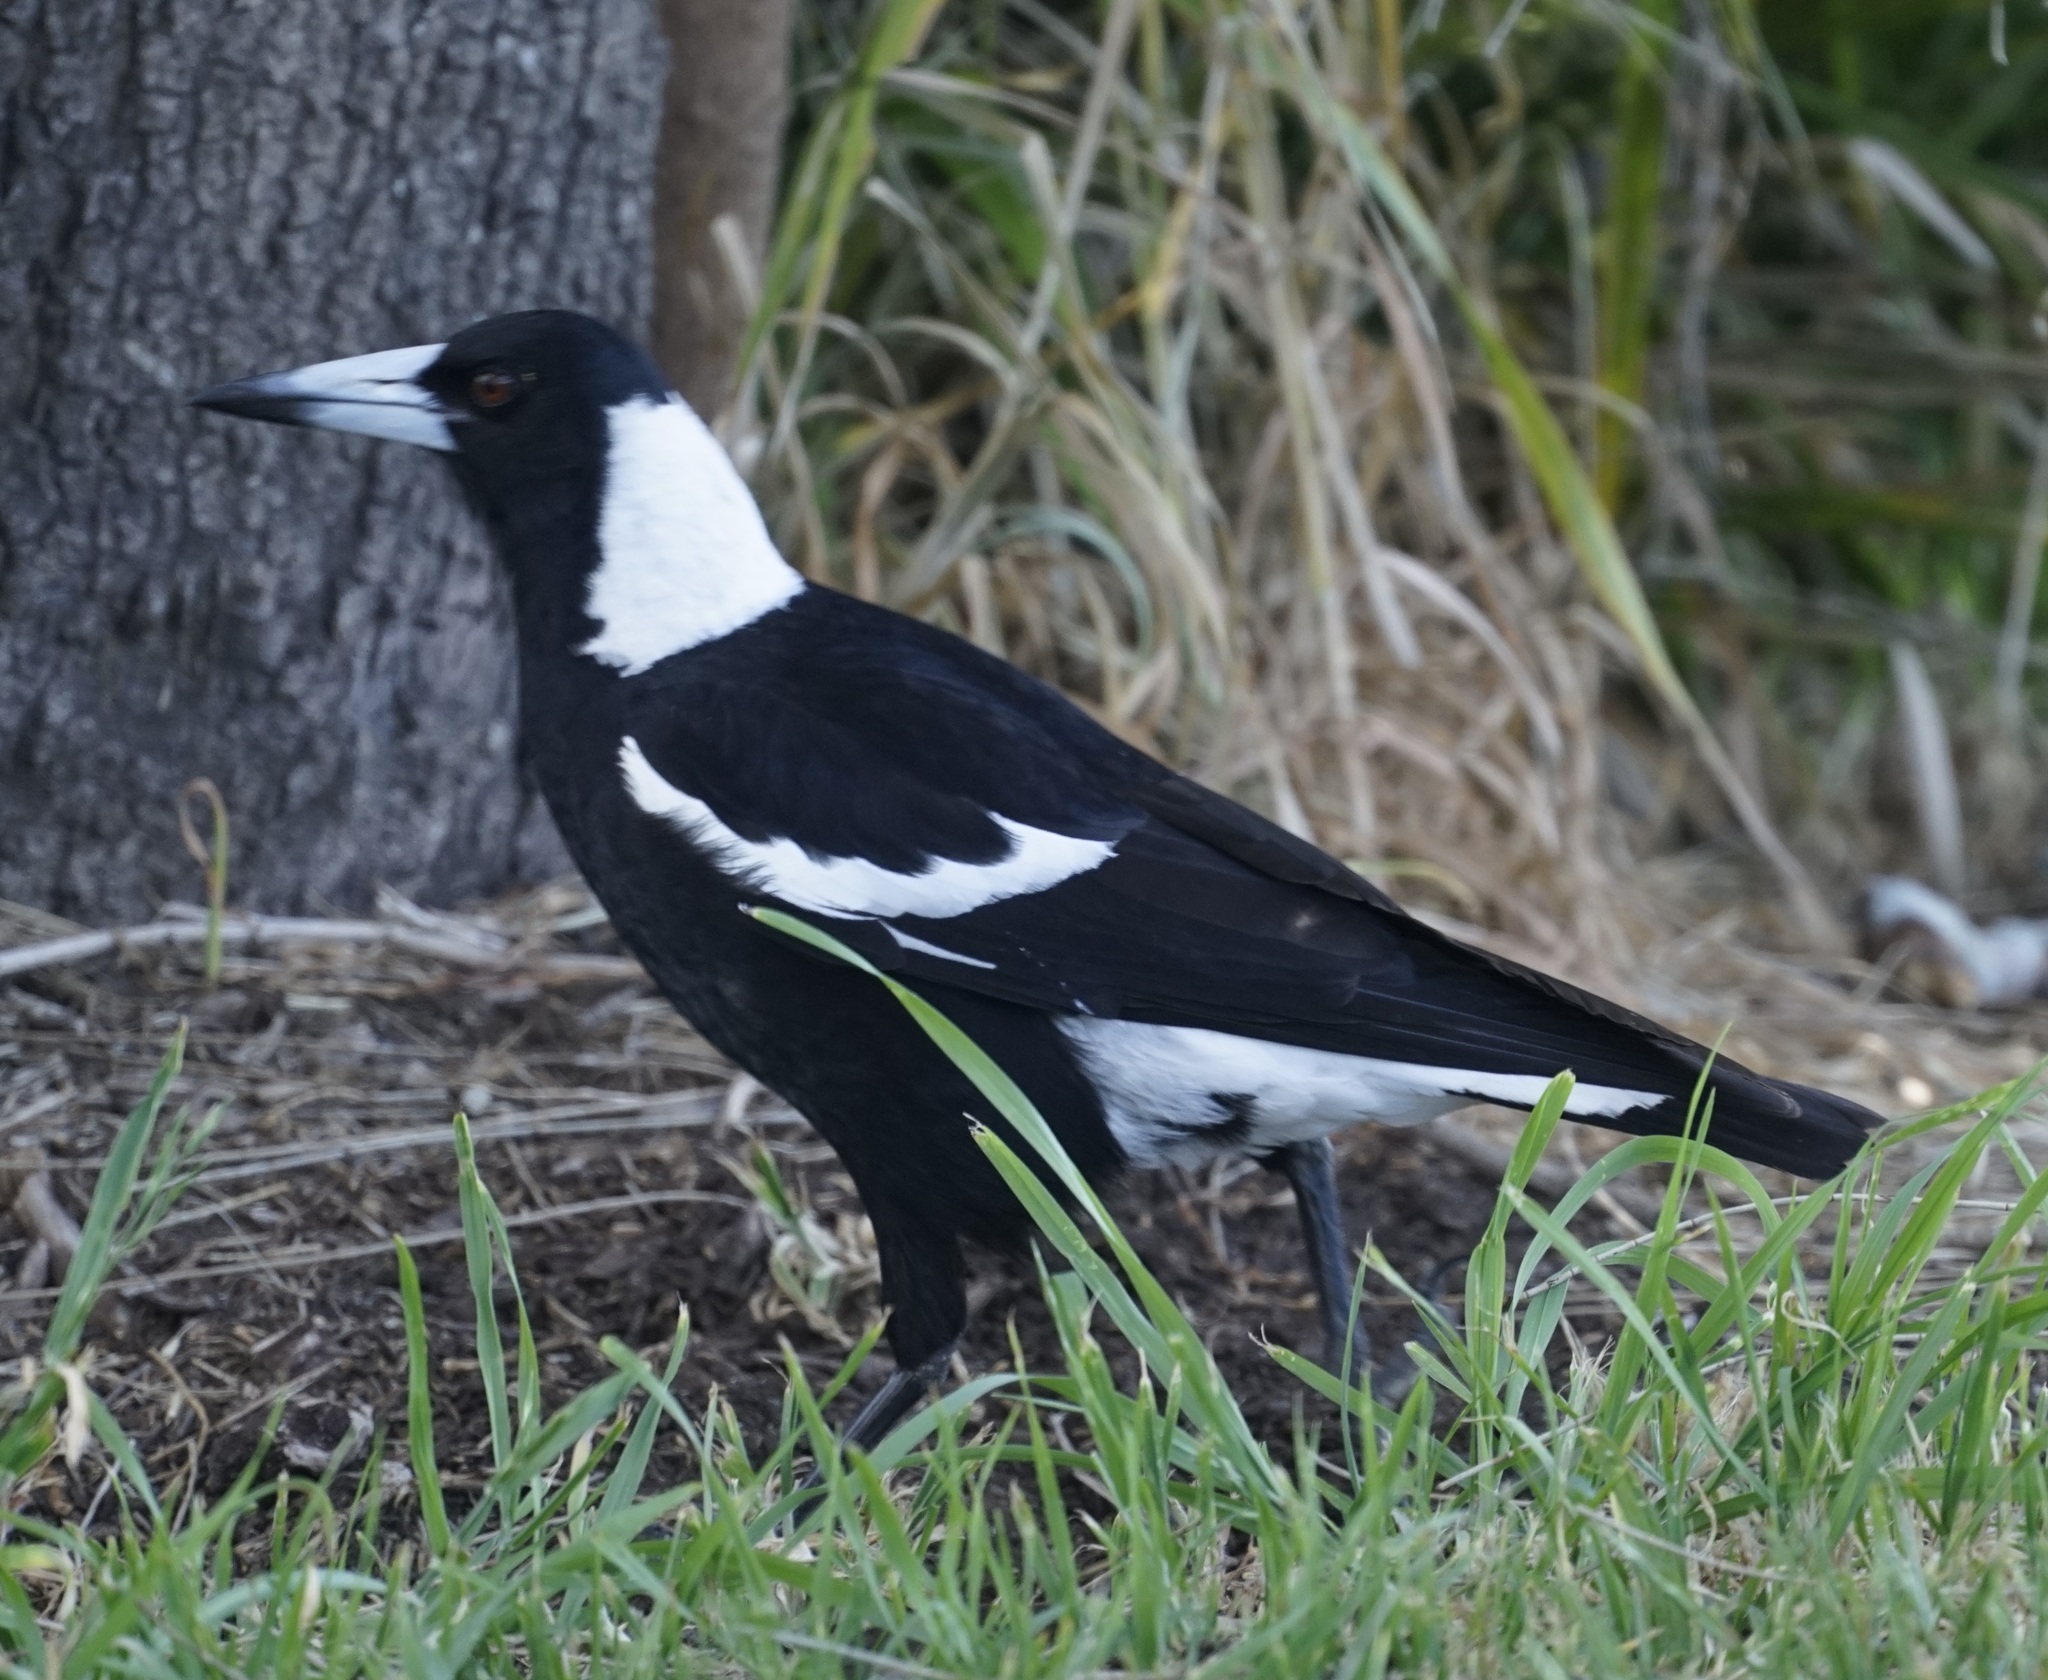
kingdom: Animalia
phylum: Chordata
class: Aves
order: Passeriformes
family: Cracticidae
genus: Gymnorhina
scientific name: Gymnorhina tibicen
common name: Australian magpie
